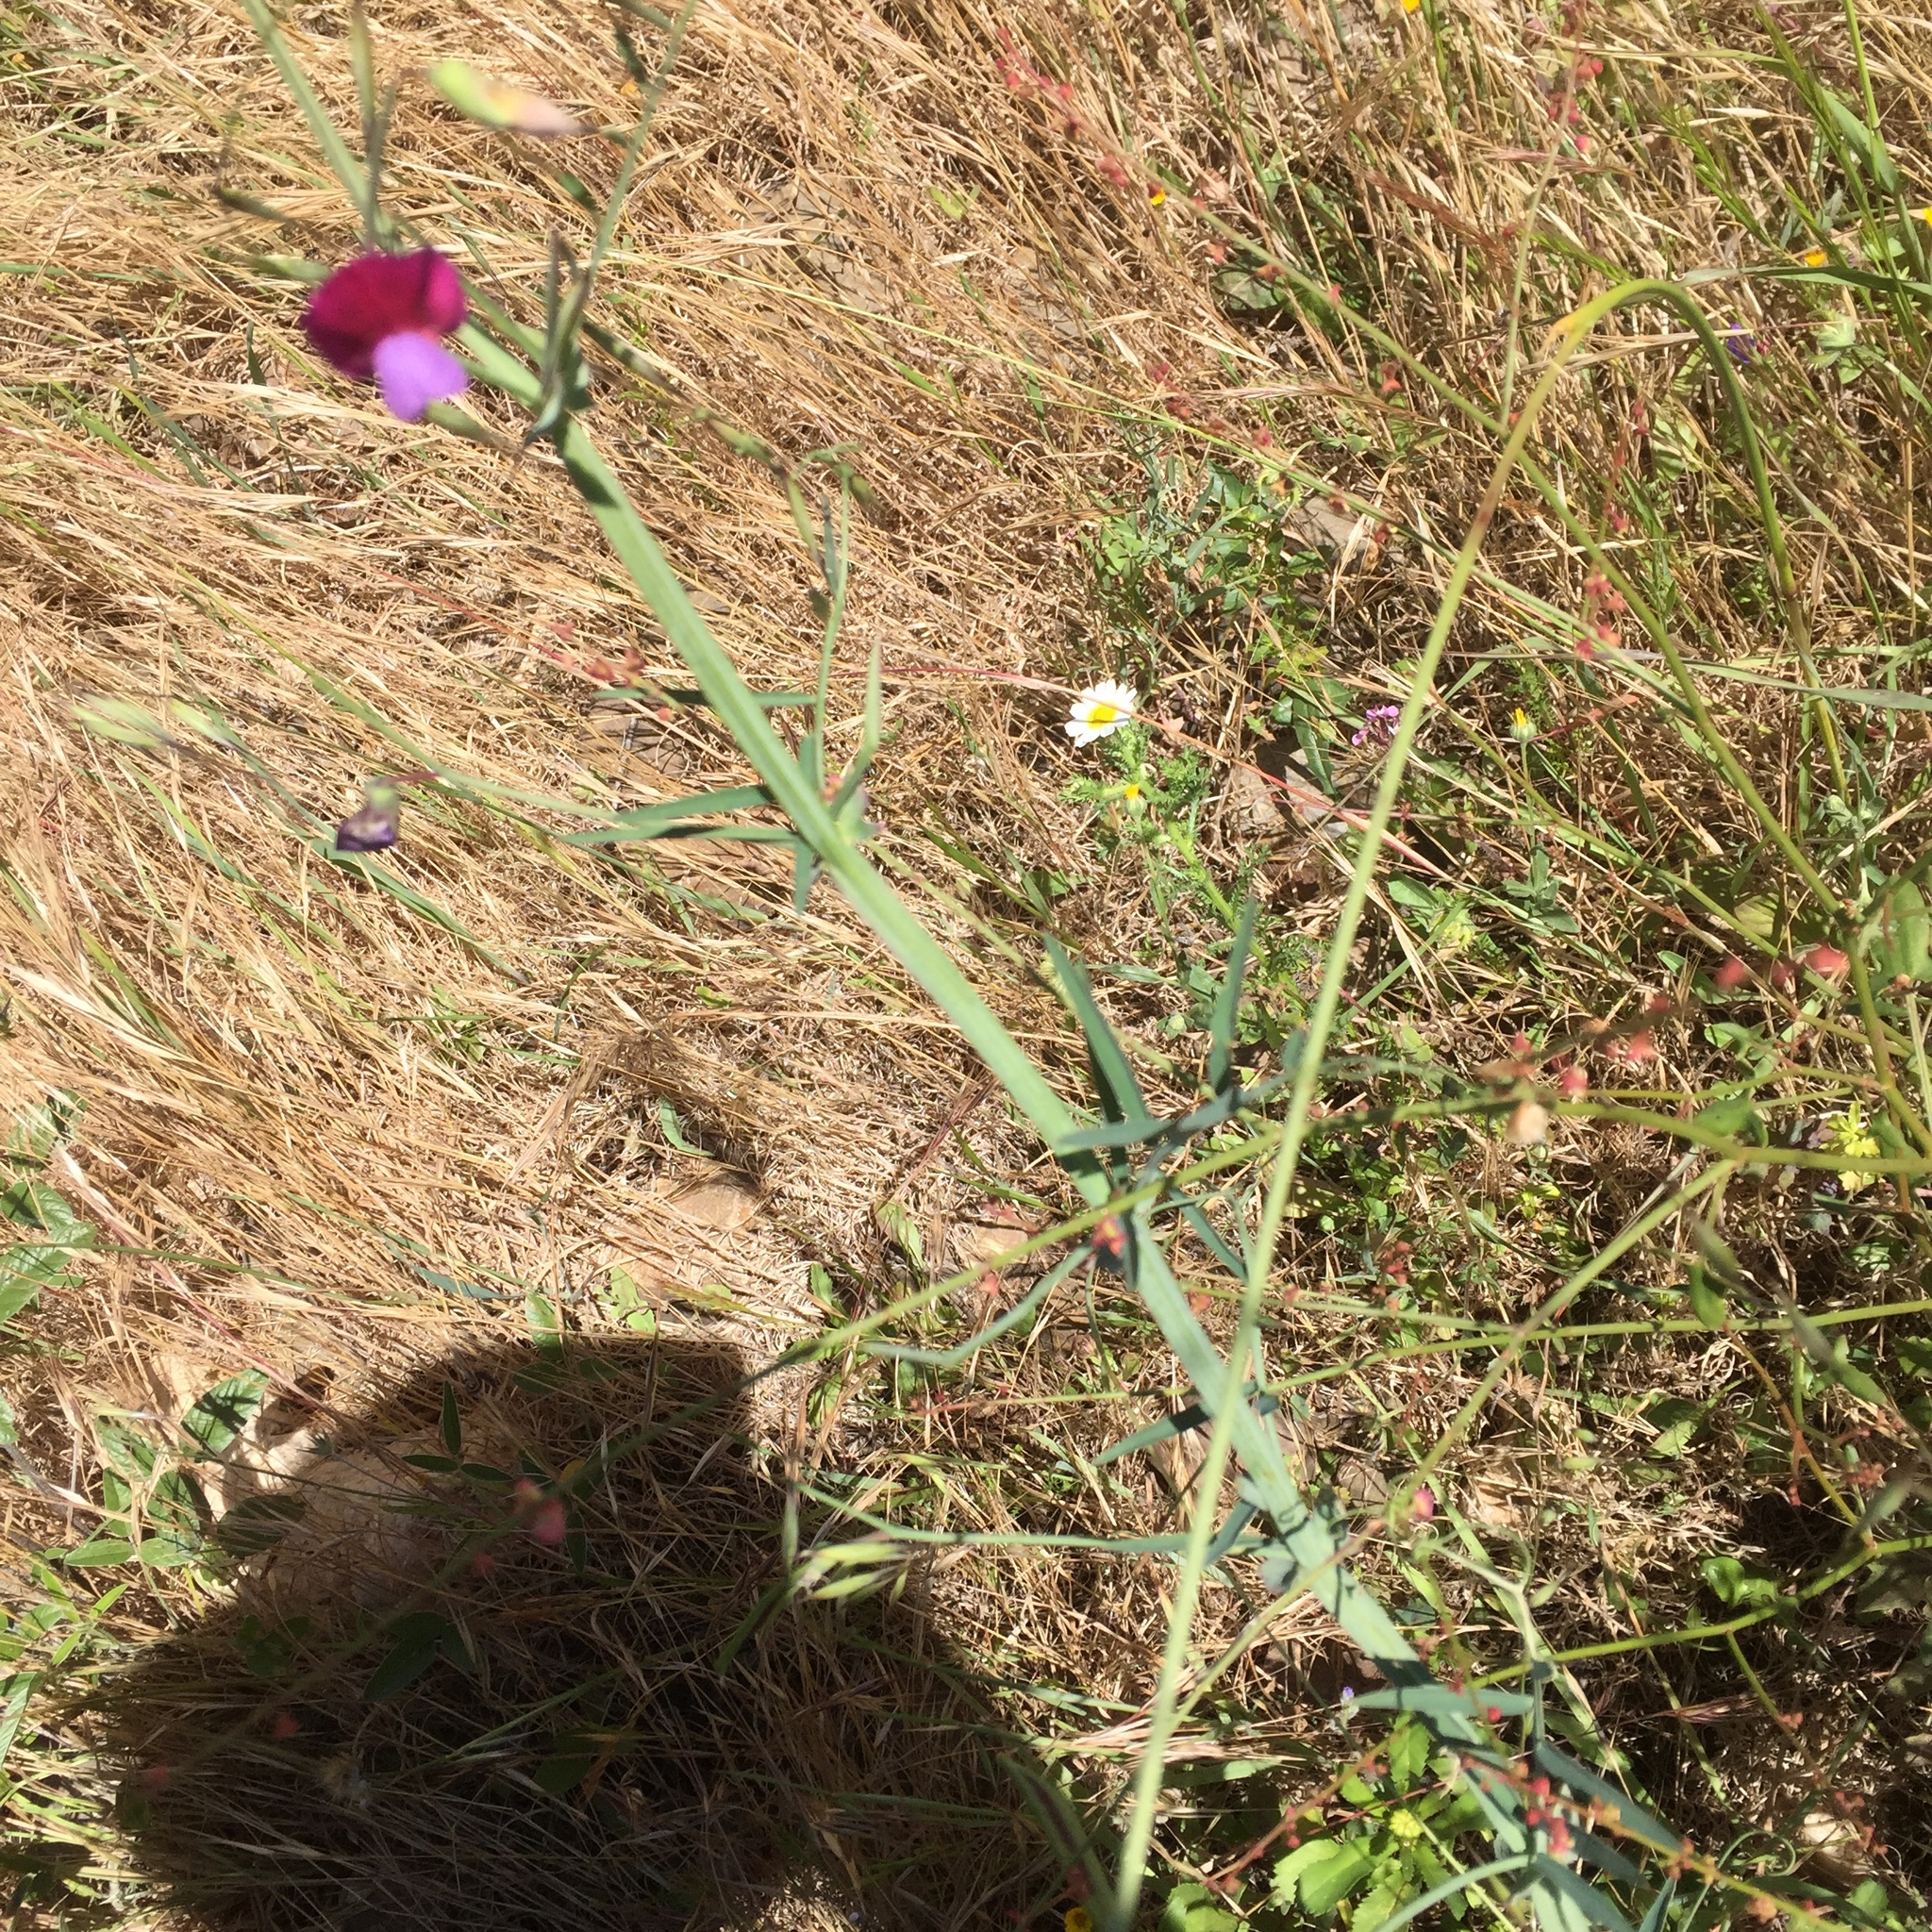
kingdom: Plantae
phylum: Tracheophyta
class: Magnoliopsida
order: Fabales
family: Fabaceae
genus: Lathyrus
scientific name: Lathyrus tingitanus
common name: Tangier pea
